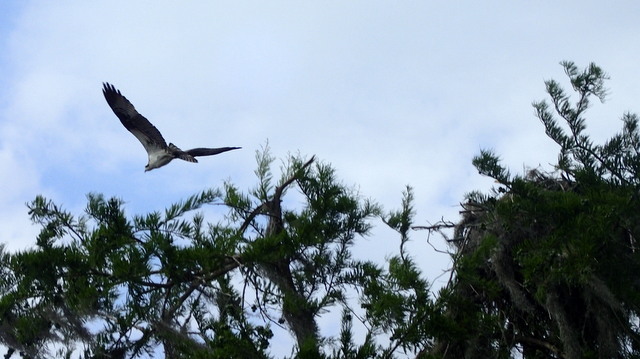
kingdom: Animalia
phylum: Chordata
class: Aves
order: Accipitriformes
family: Pandionidae
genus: Pandion
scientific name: Pandion haliaetus
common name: Osprey
